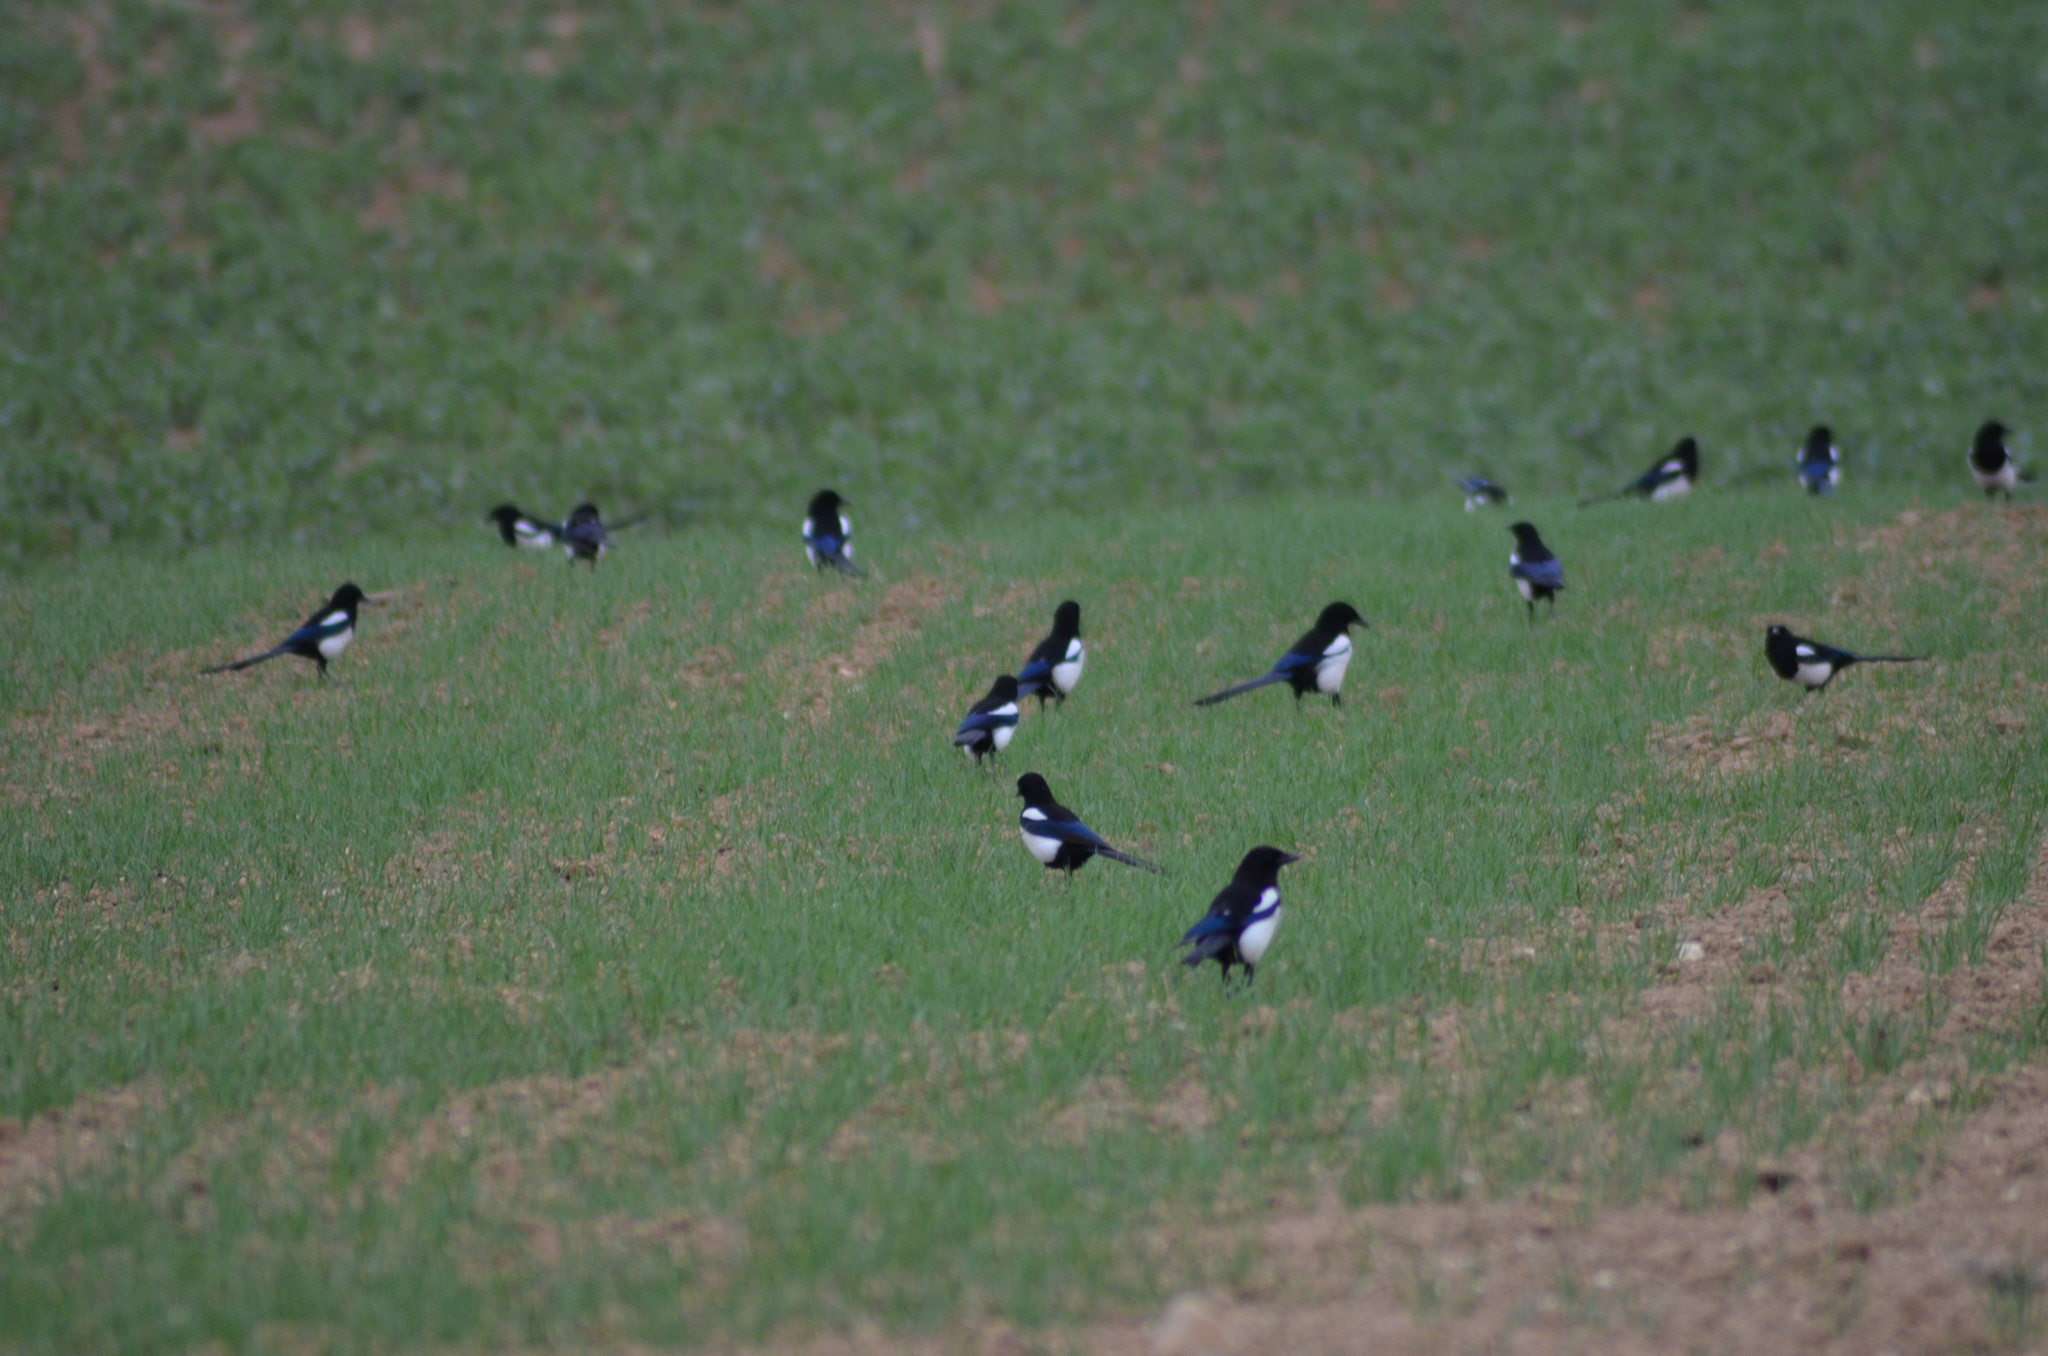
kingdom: Animalia
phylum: Chordata
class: Aves
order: Passeriformes
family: Corvidae
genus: Pica
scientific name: Pica pica
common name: Eurasian magpie
